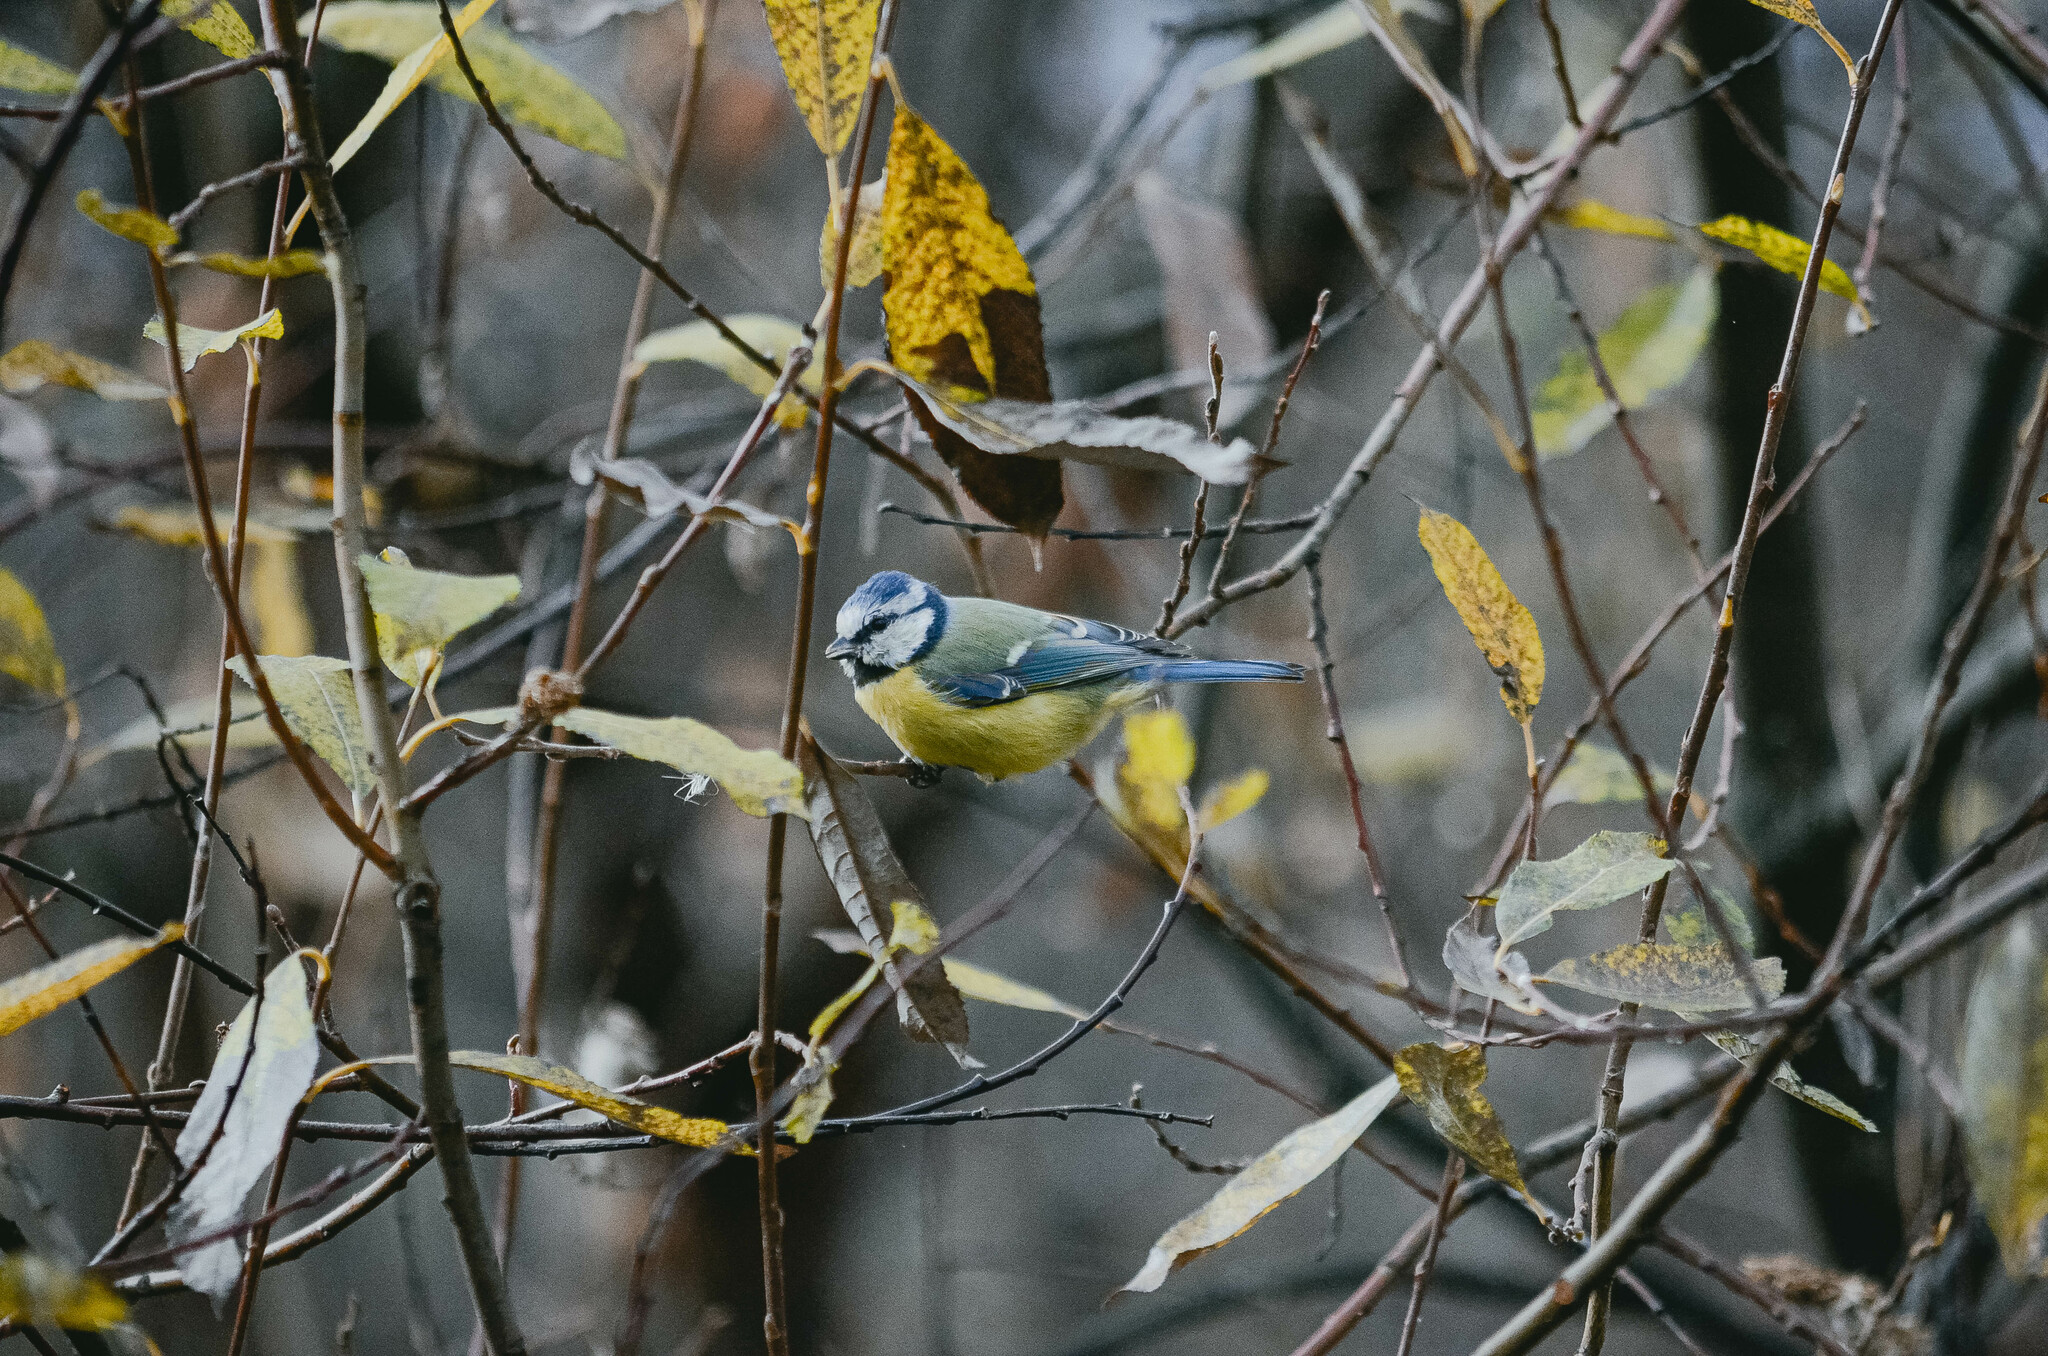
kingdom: Animalia
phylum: Chordata
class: Aves
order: Passeriformes
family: Paridae
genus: Cyanistes
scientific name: Cyanistes caeruleus
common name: Eurasian blue tit
